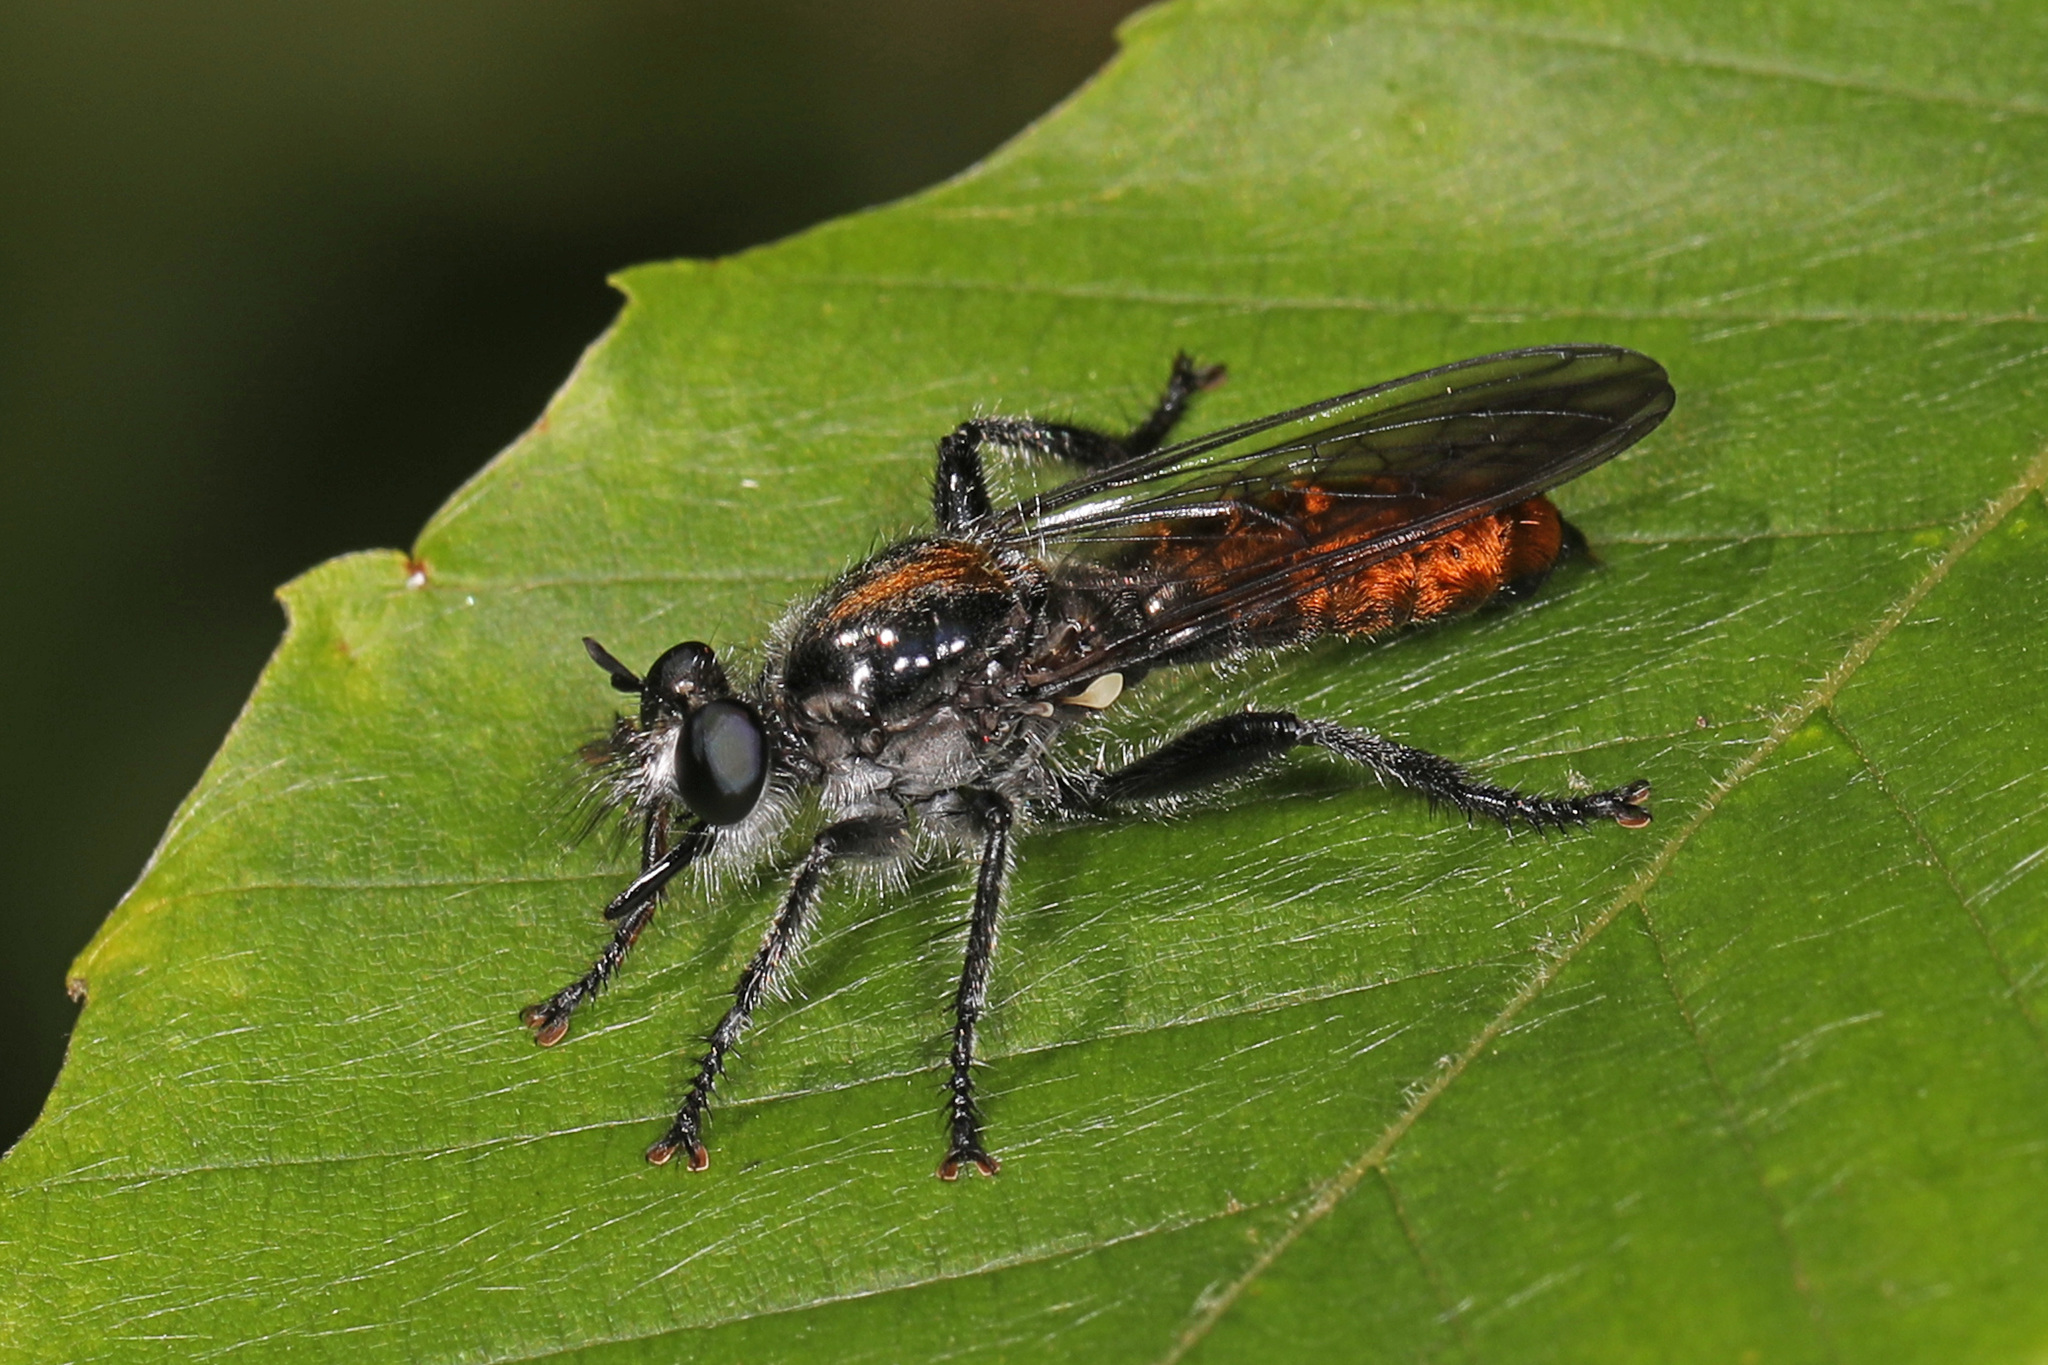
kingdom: Animalia
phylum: Arthropoda
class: Insecta
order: Diptera
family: Asilidae
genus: Laphria
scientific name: Laphria
